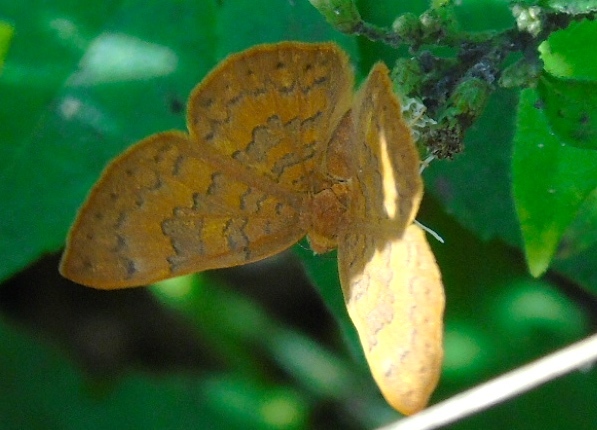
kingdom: Animalia
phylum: Arthropoda
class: Insecta
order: Lepidoptera
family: Lycaenidae
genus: Emesis
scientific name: Emesis tenedia
